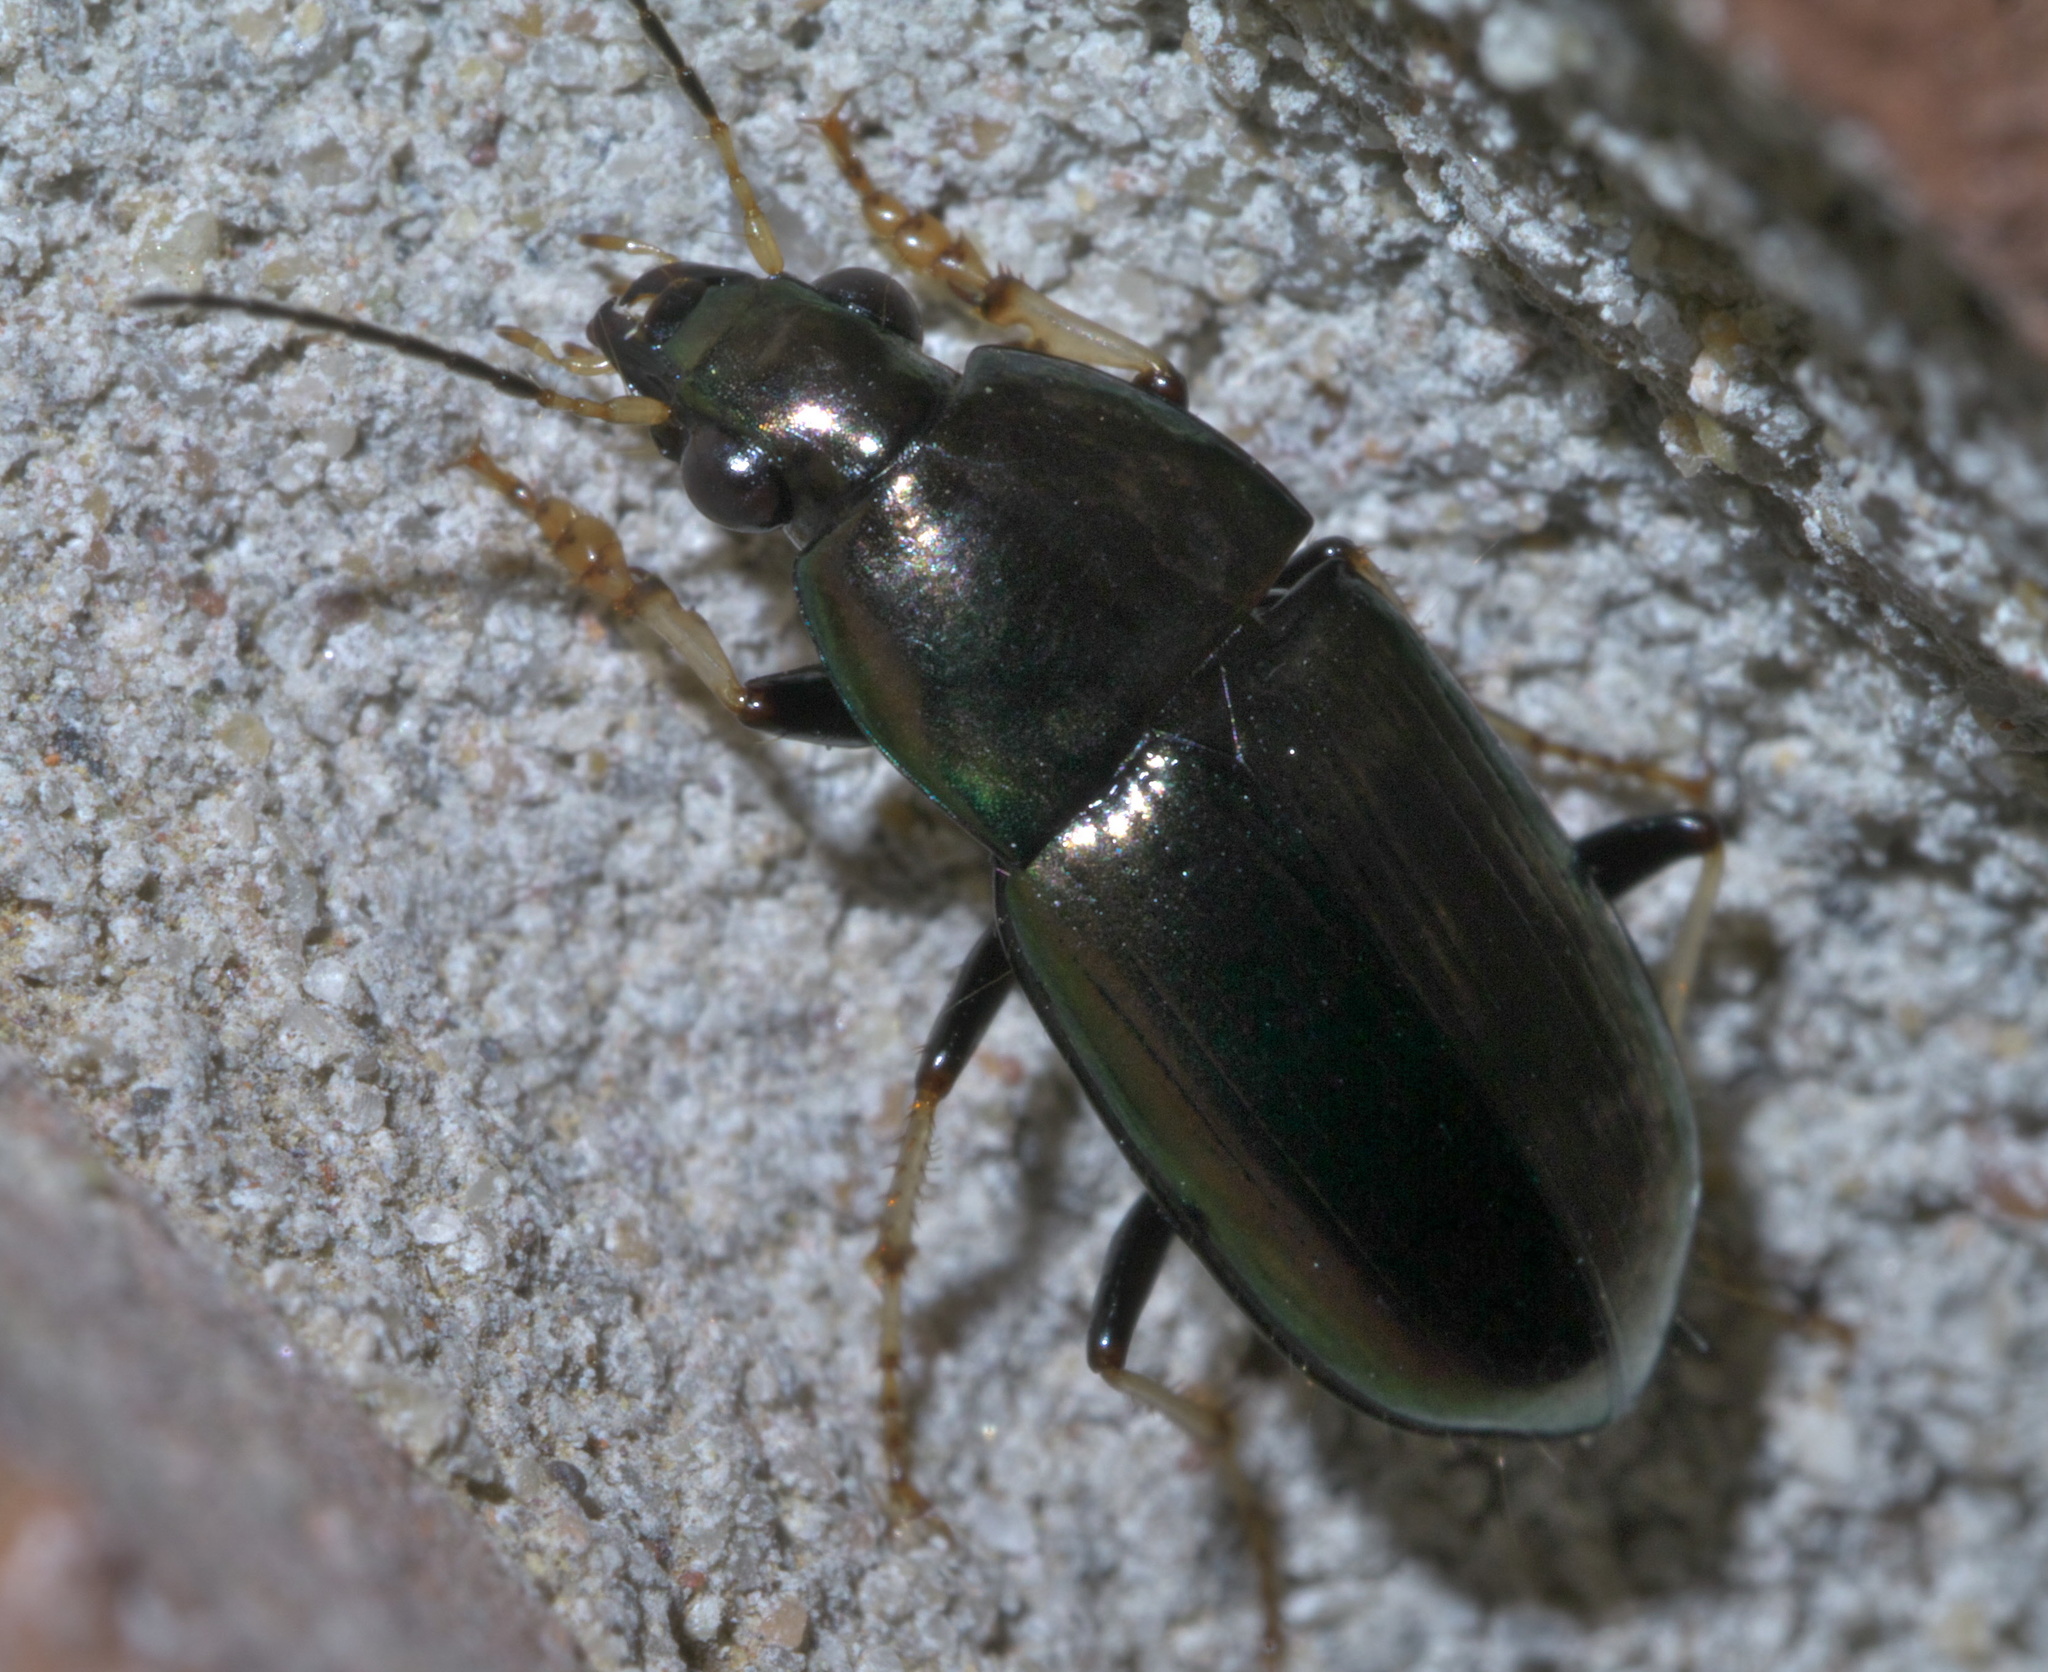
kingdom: Animalia
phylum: Arthropoda
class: Insecta
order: Coleoptera
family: Carabidae
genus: Stenocrepis
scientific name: Stenocrepis cuprea
